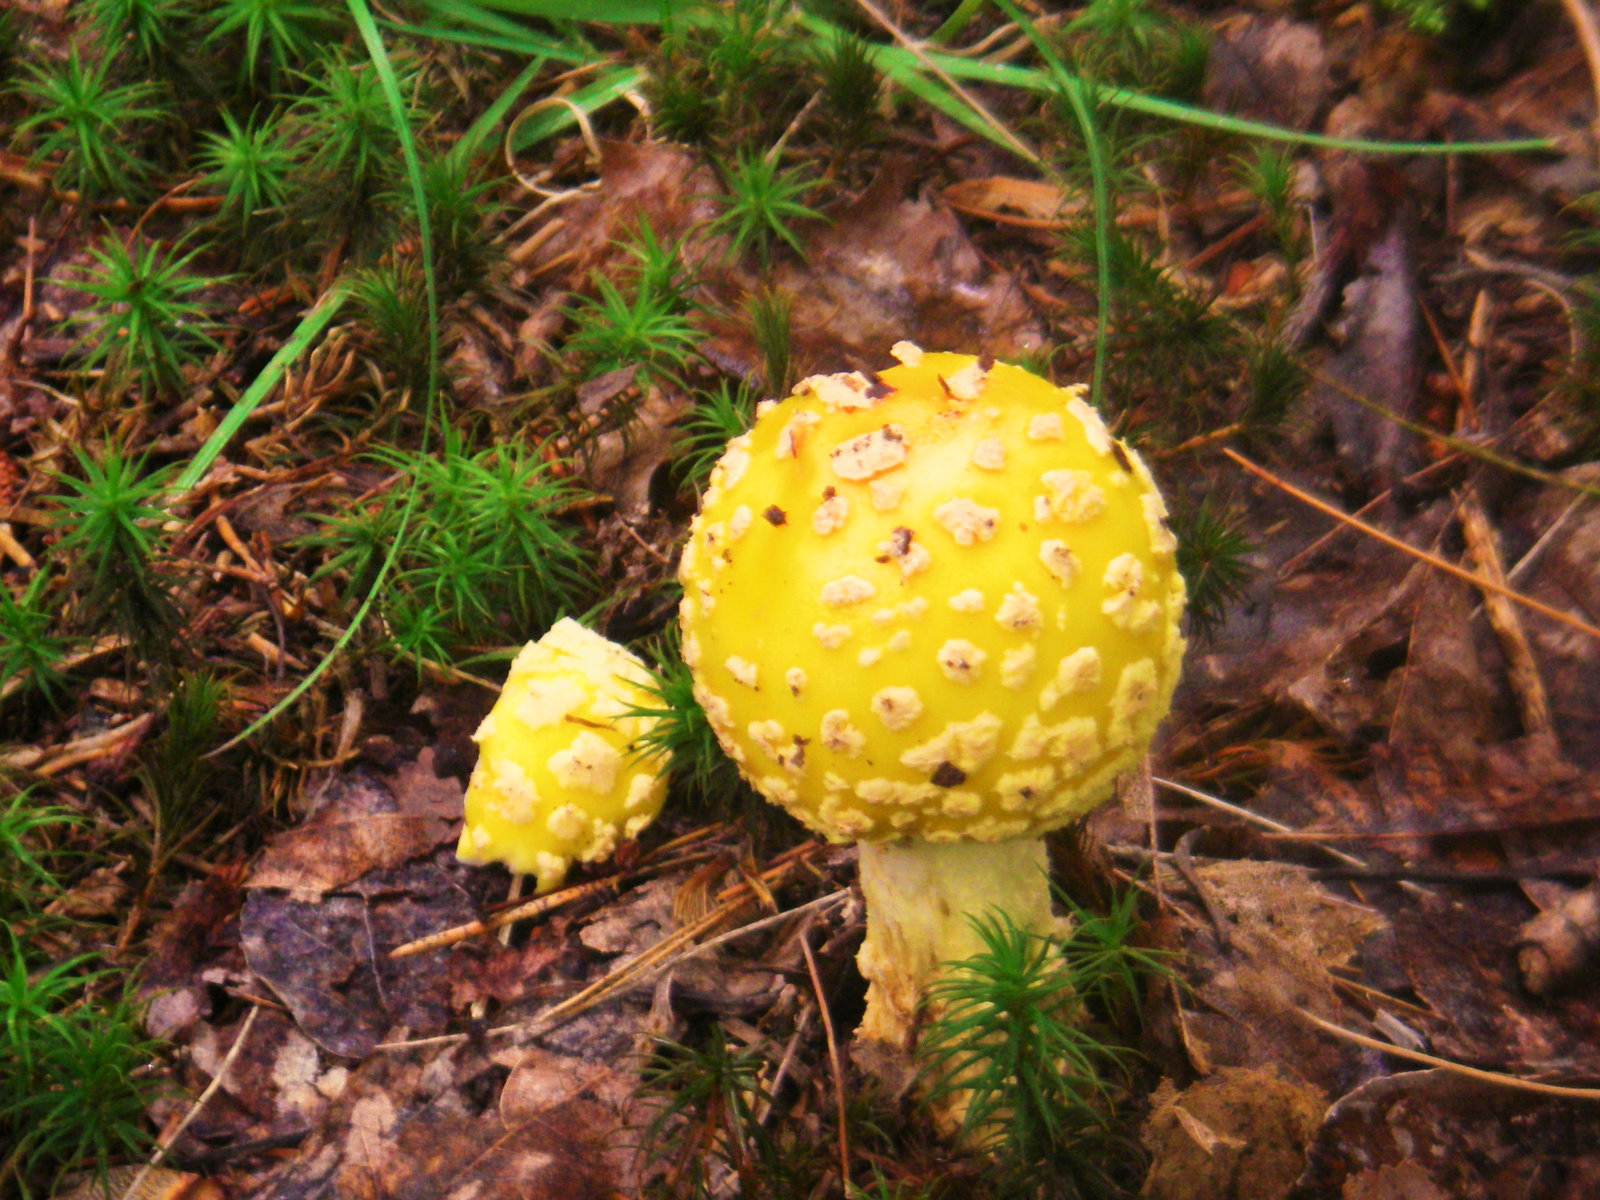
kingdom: Fungi
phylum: Basidiomycota
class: Agaricomycetes
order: Agaricales
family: Amanitaceae
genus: Amanita
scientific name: Amanita muscaria
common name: Fly agaric
